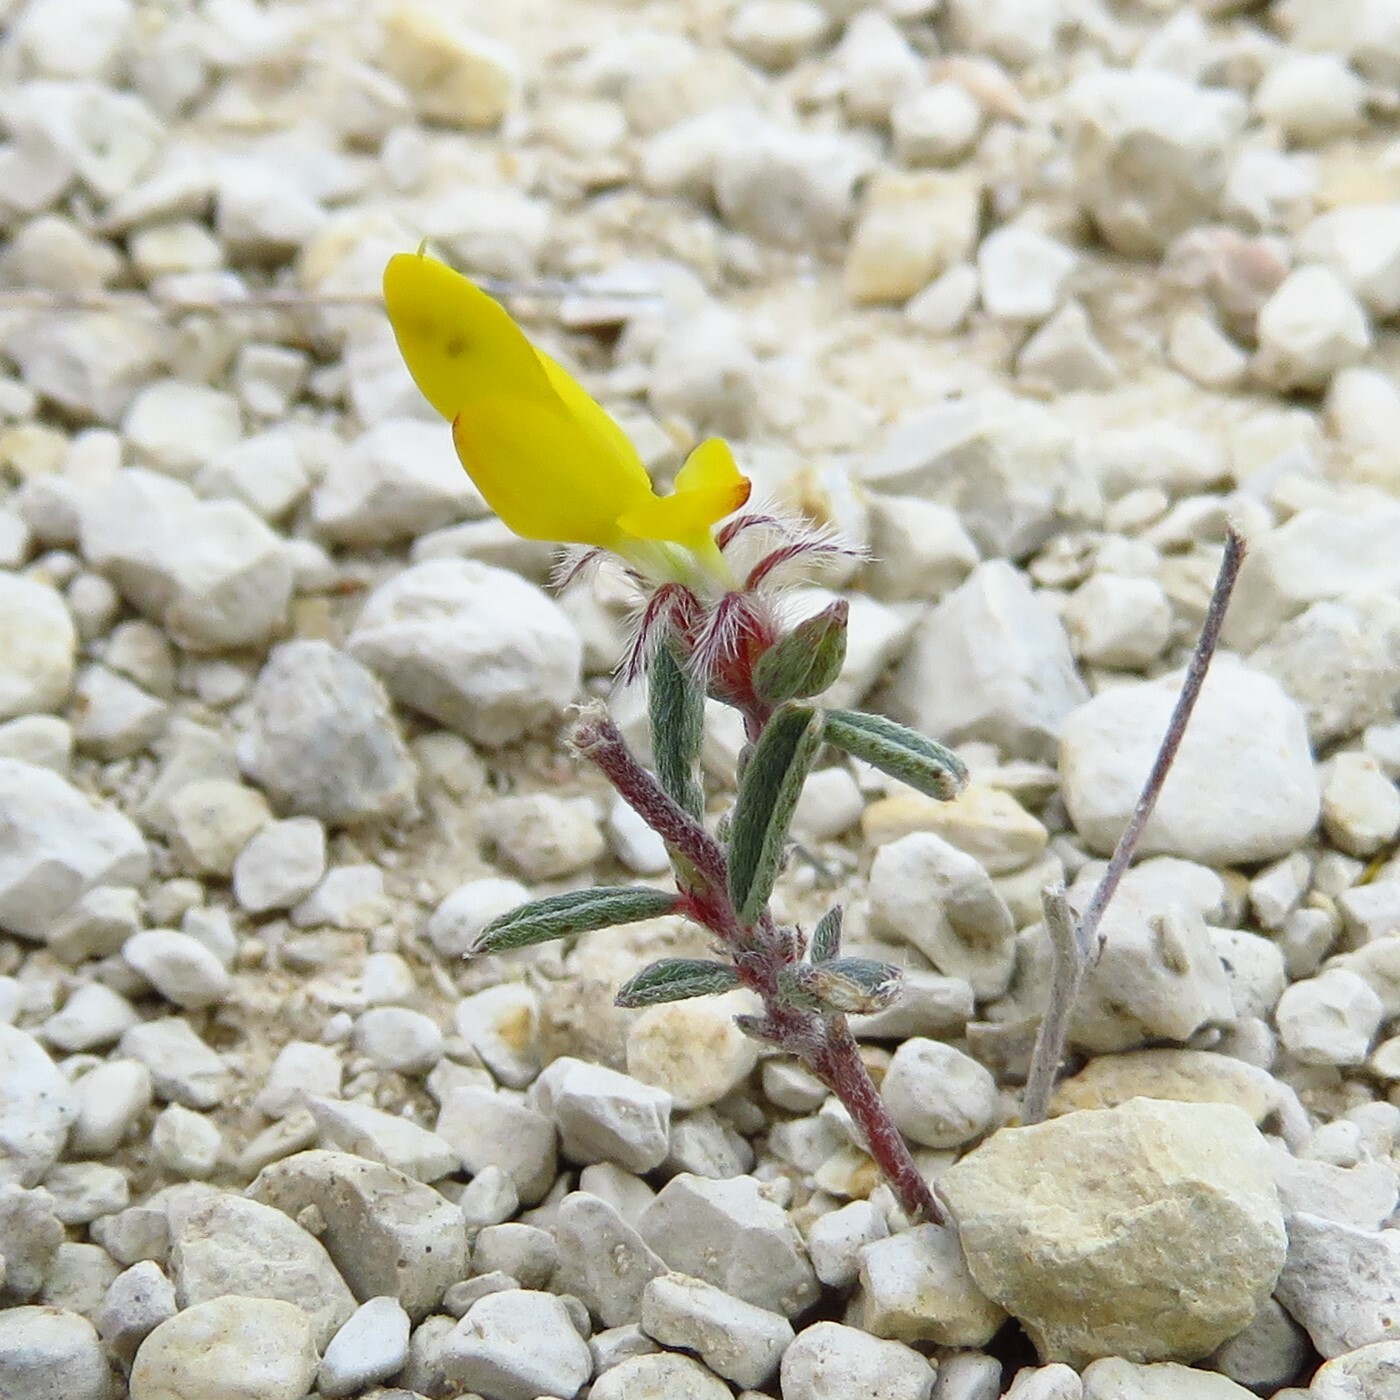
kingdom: Plantae
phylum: Tracheophyta
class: Magnoliopsida
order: Fabales
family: Fabaceae
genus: Dalea
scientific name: Dalea hallii
